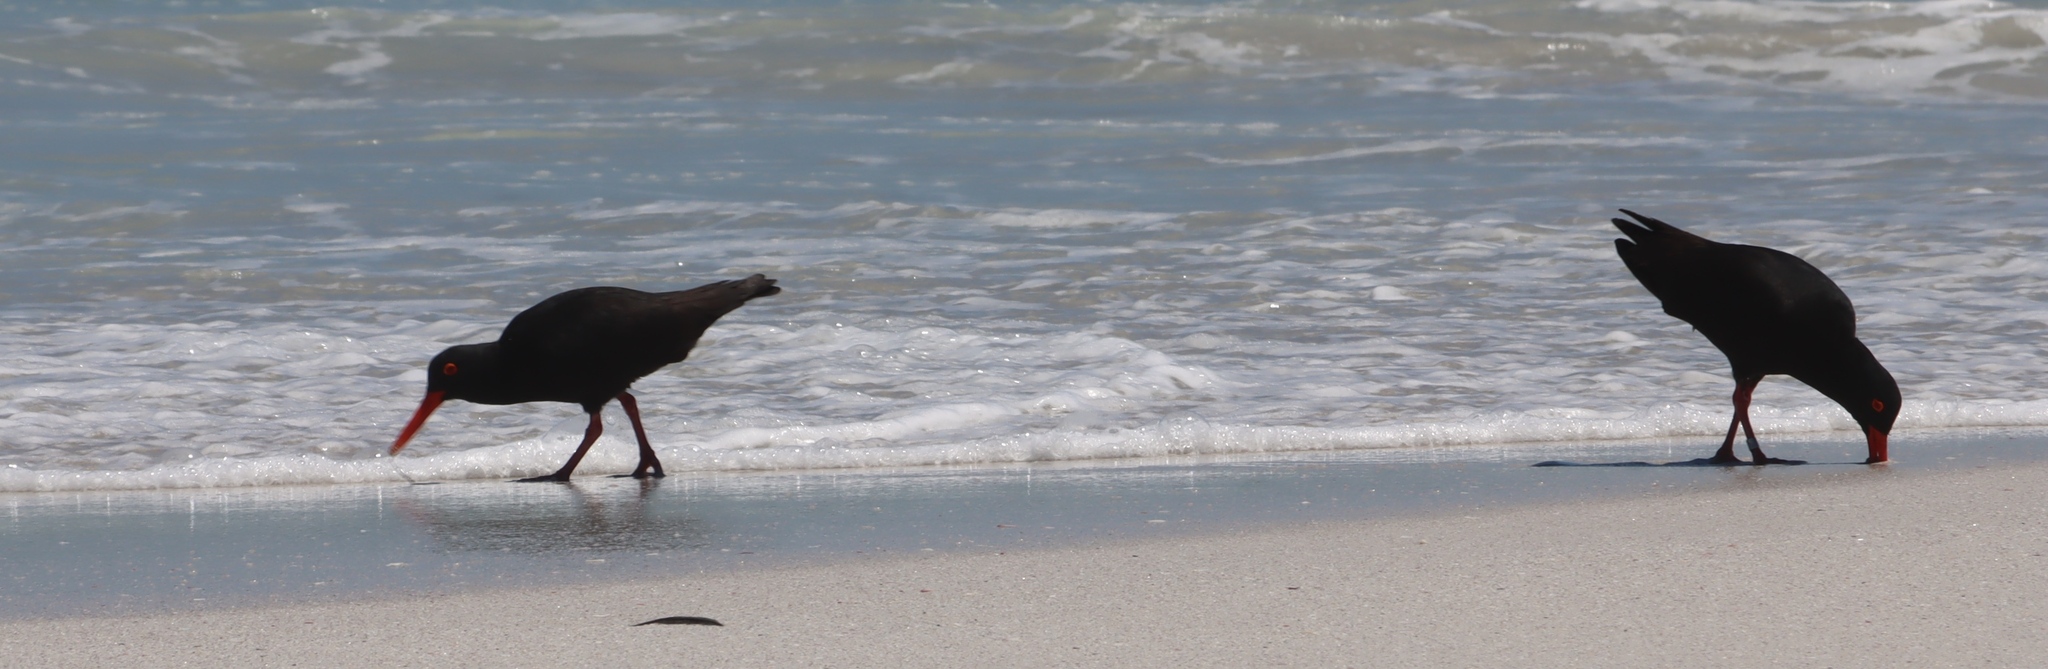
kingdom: Animalia
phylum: Chordata
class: Aves
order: Charadriiformes
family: Haematopodidae
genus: Haematopus
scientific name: Haematopus moquini
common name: African oystercatcher
